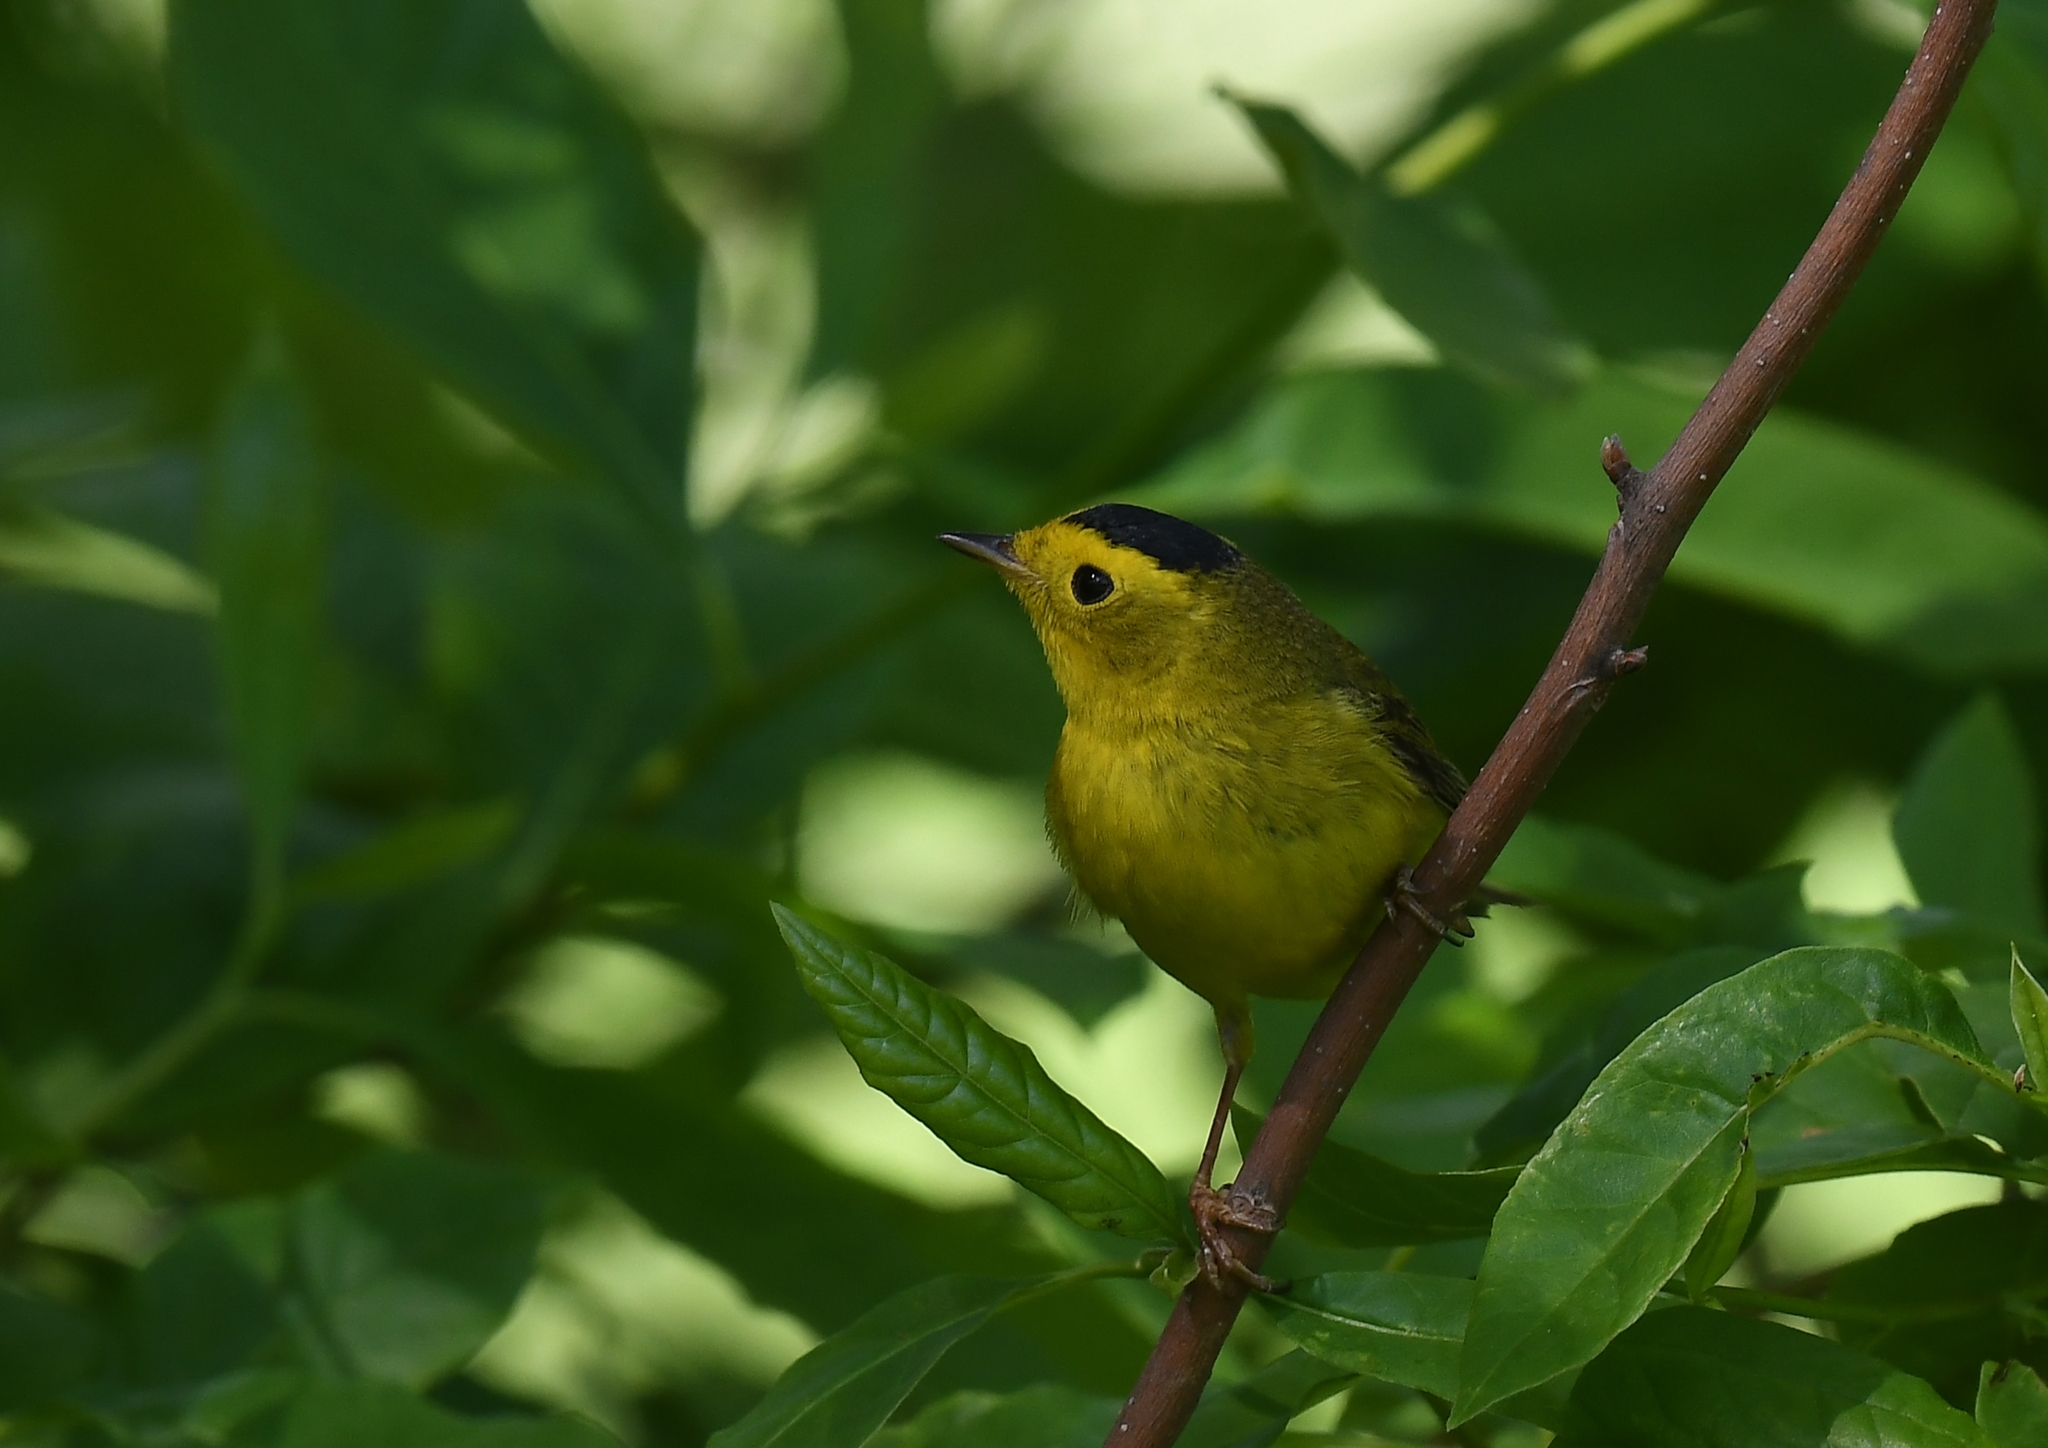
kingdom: Animalia
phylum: Chordata
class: Aves
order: Passeriformes
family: Parulidae
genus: Cardellina
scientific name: Cardellina pusilla
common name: Wilson's warbler
